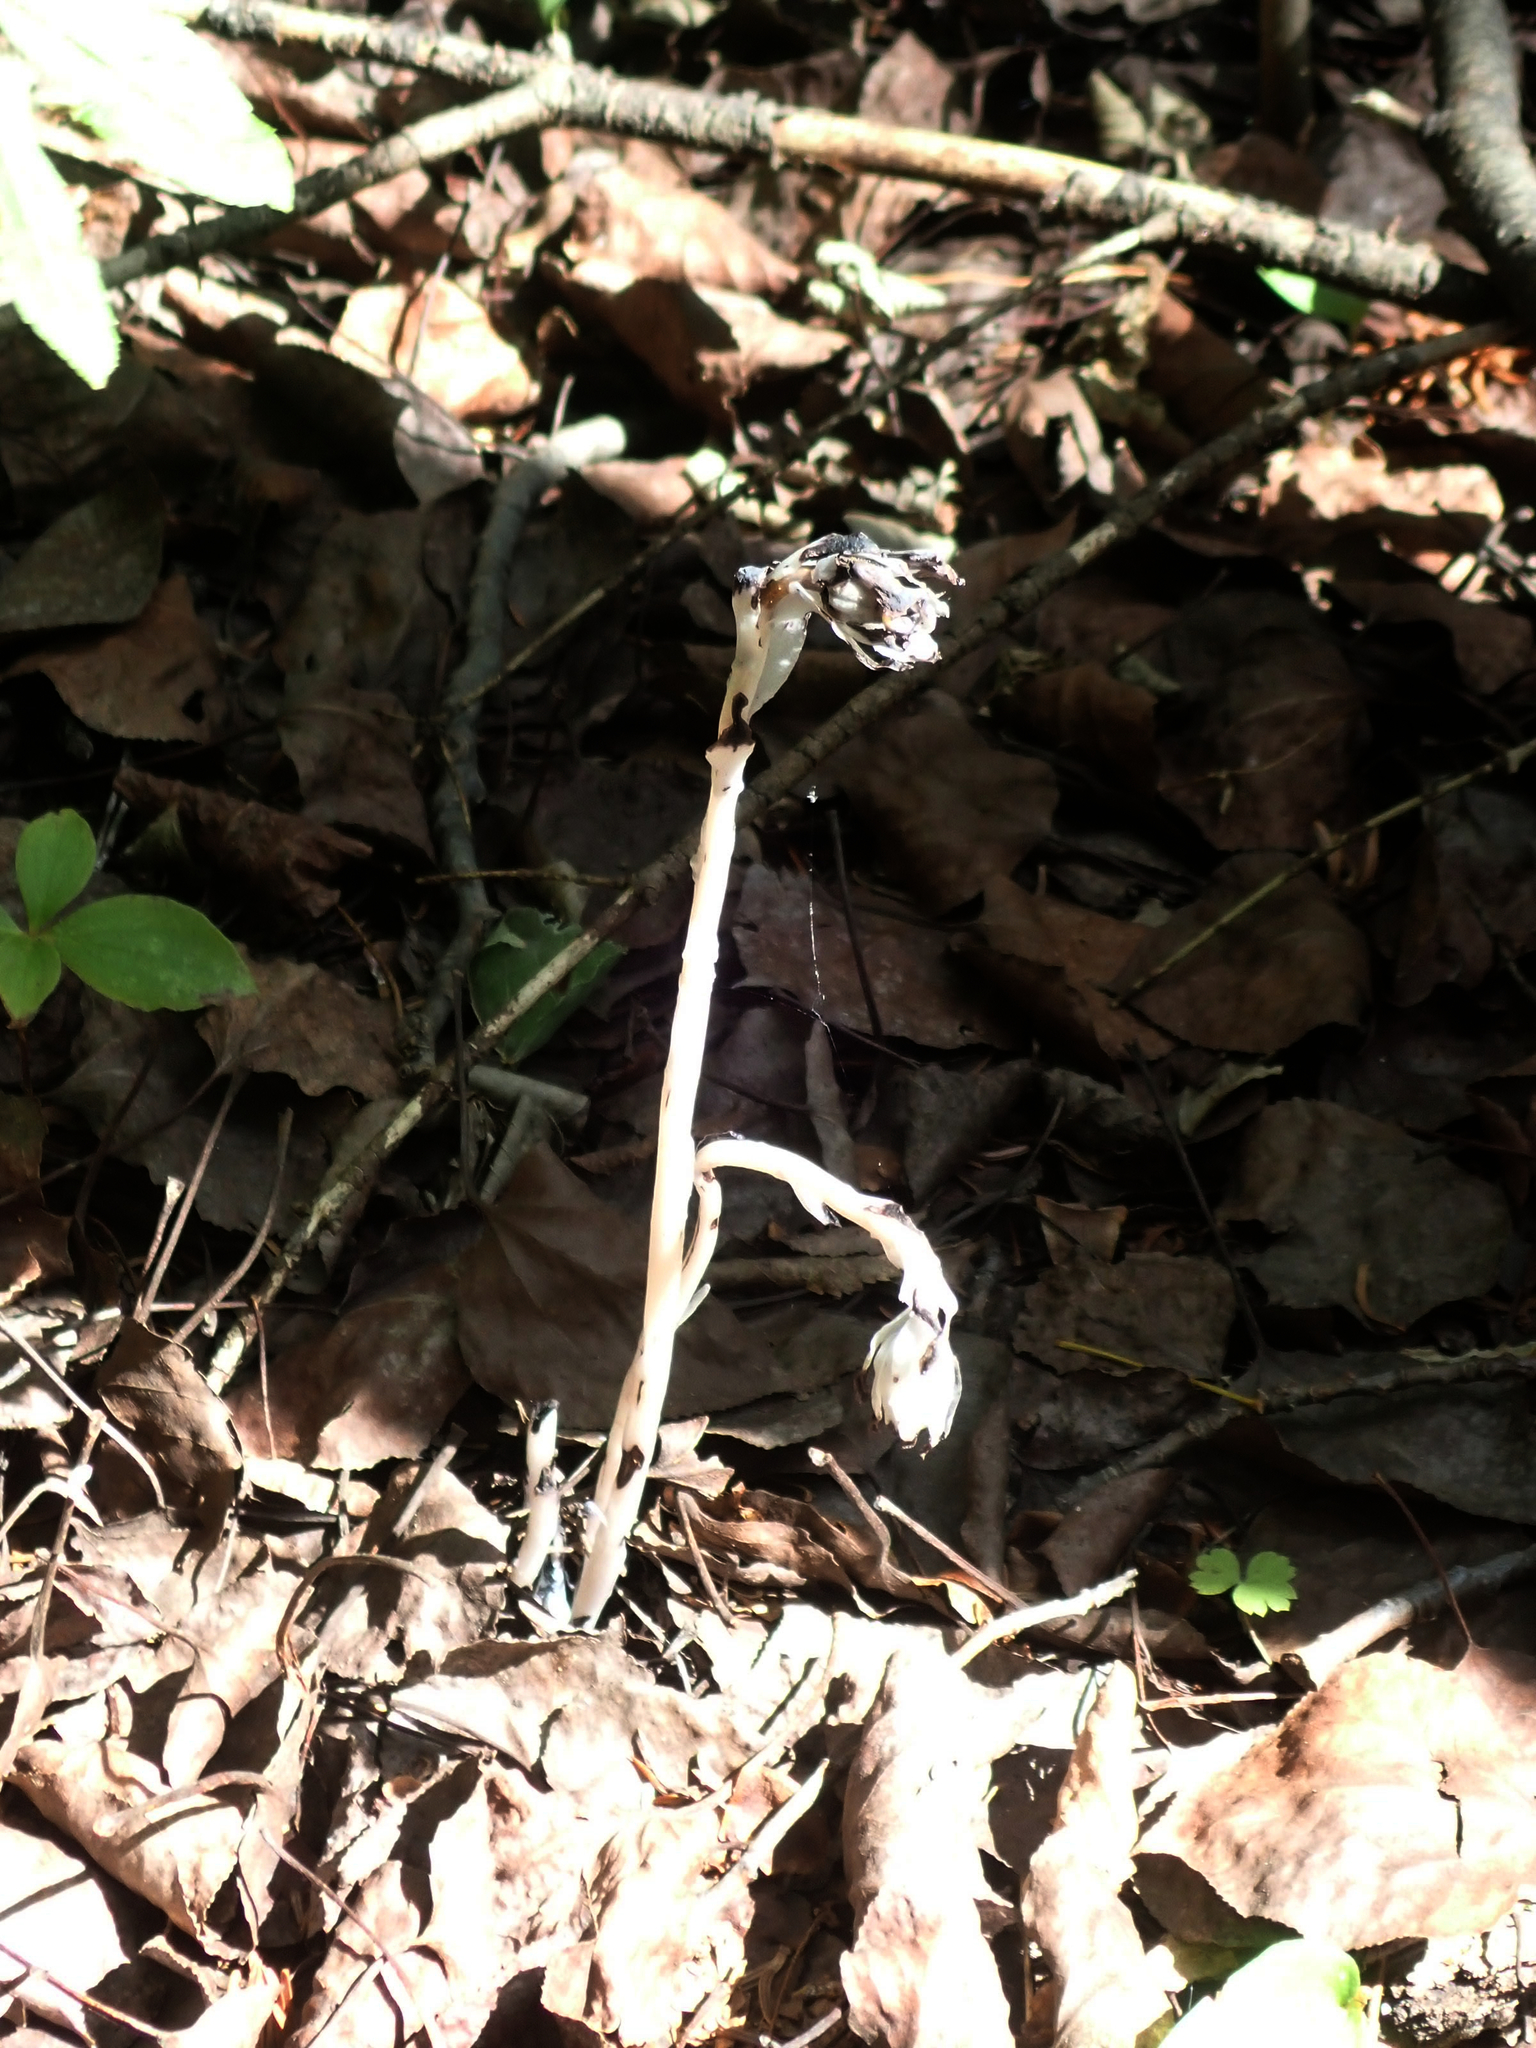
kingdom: Plantae
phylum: Tracheophyta
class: Magnoliopsida
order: Ericales
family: Ericaceae
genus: Monotropa
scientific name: Monotropa uniflora
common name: Convulsion root
